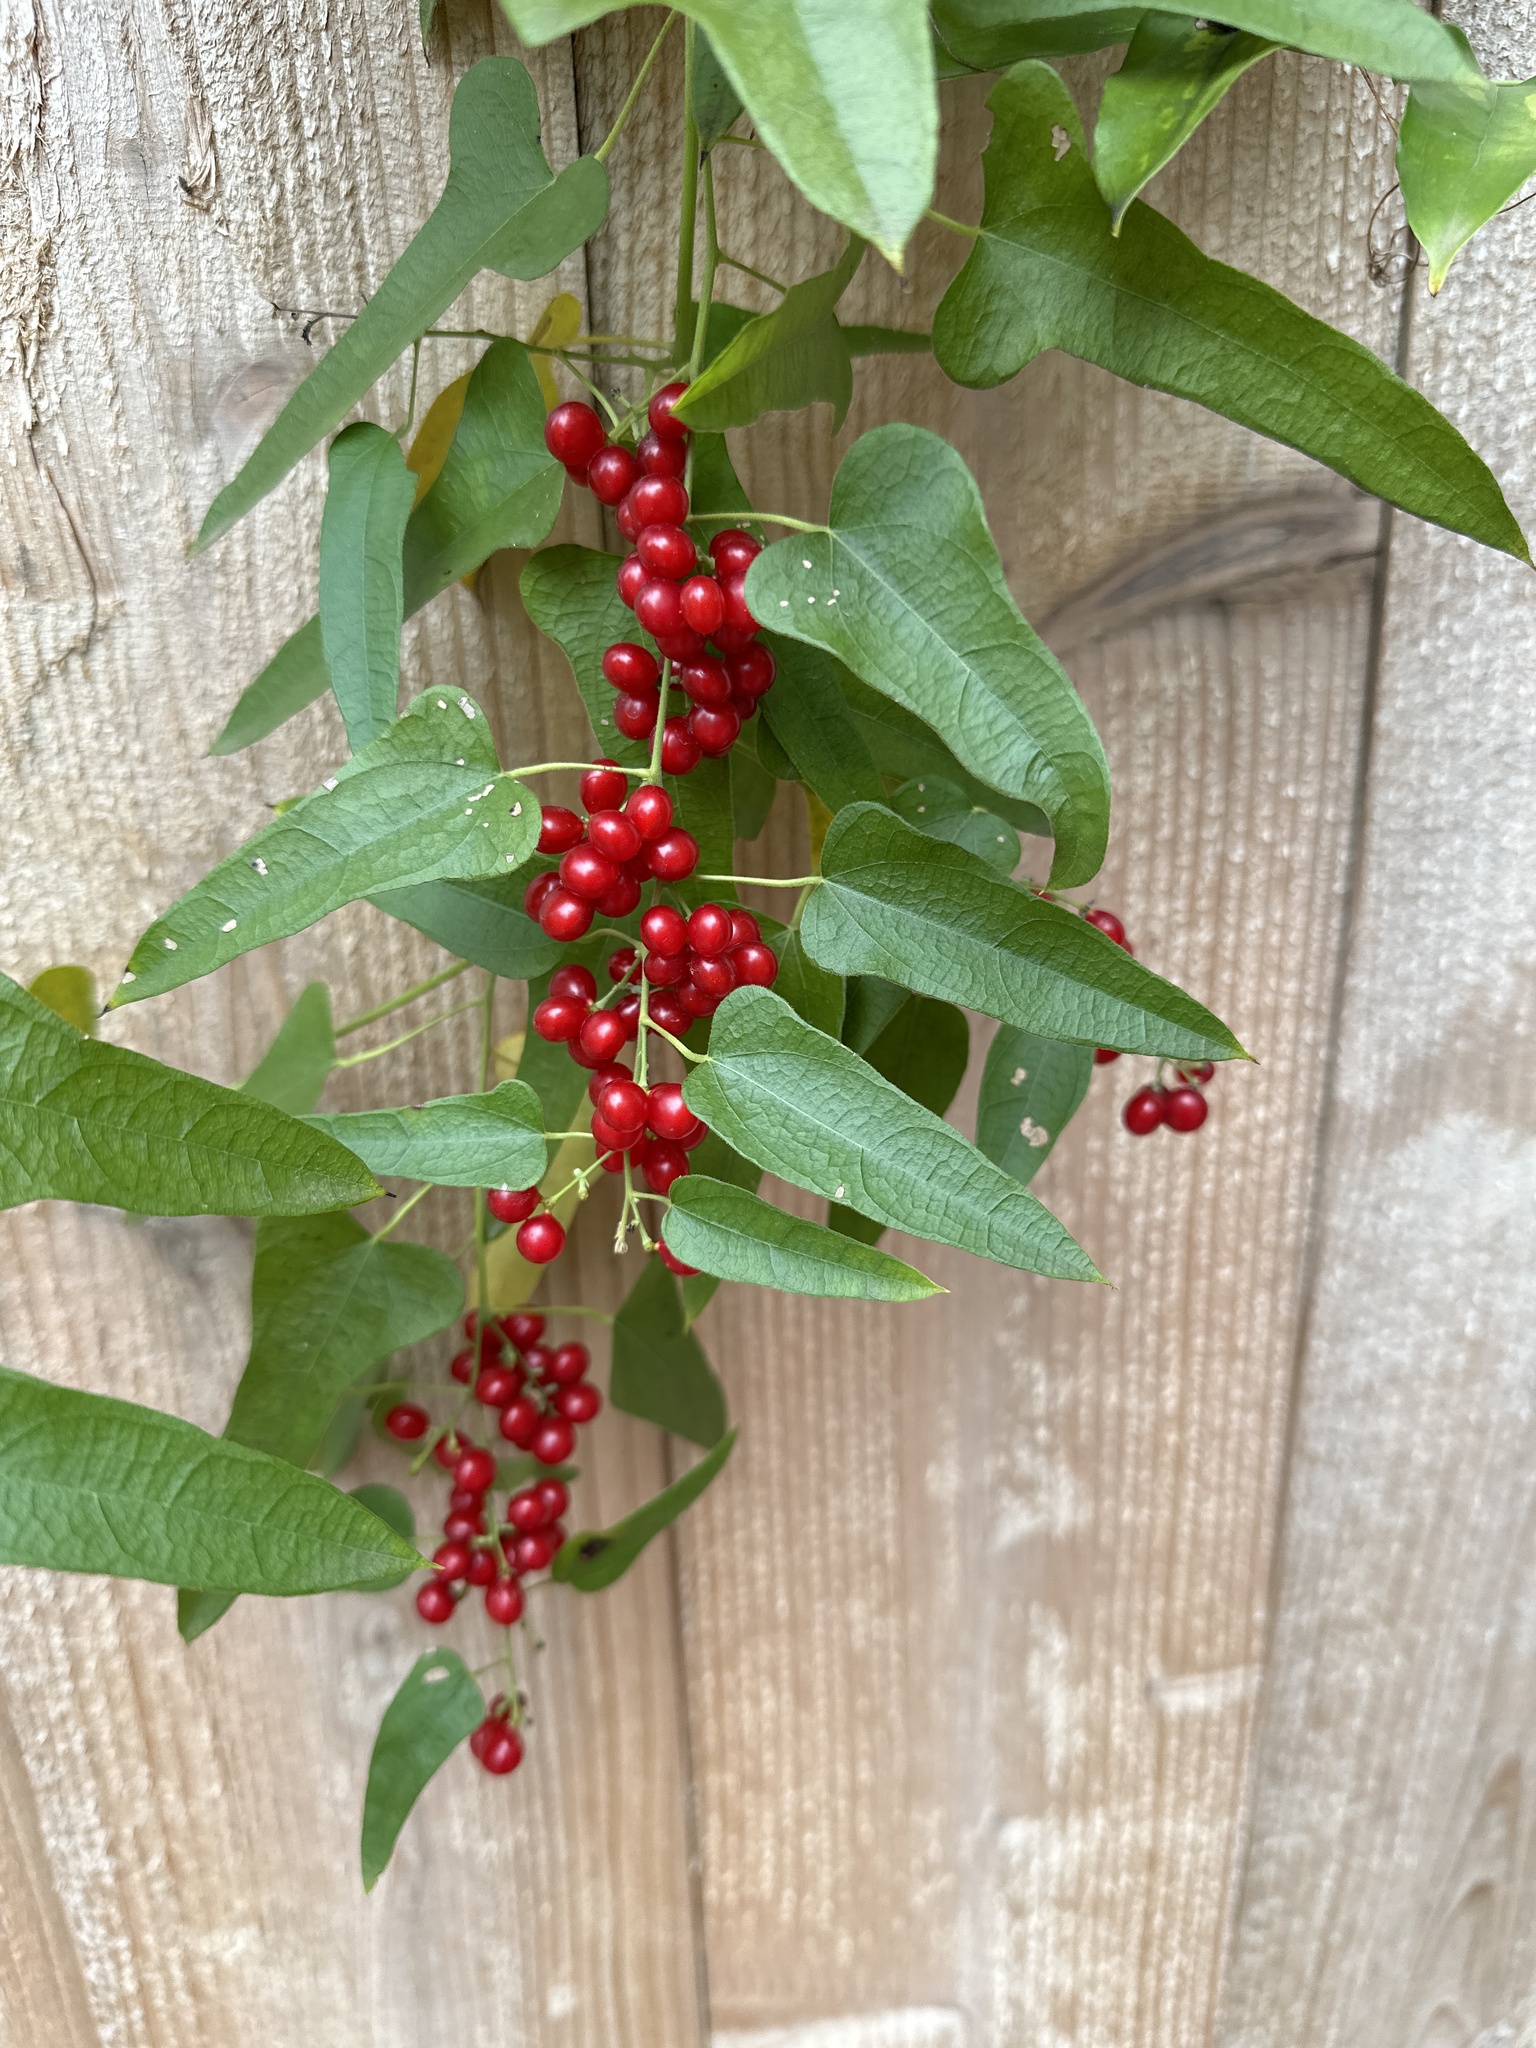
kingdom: Plantae
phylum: Tracheophyta
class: Magnoliopsida
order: Ranunculales
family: Menispermaceae
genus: Cocculus
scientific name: Cocculus carolinus
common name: Carolina moonseed
